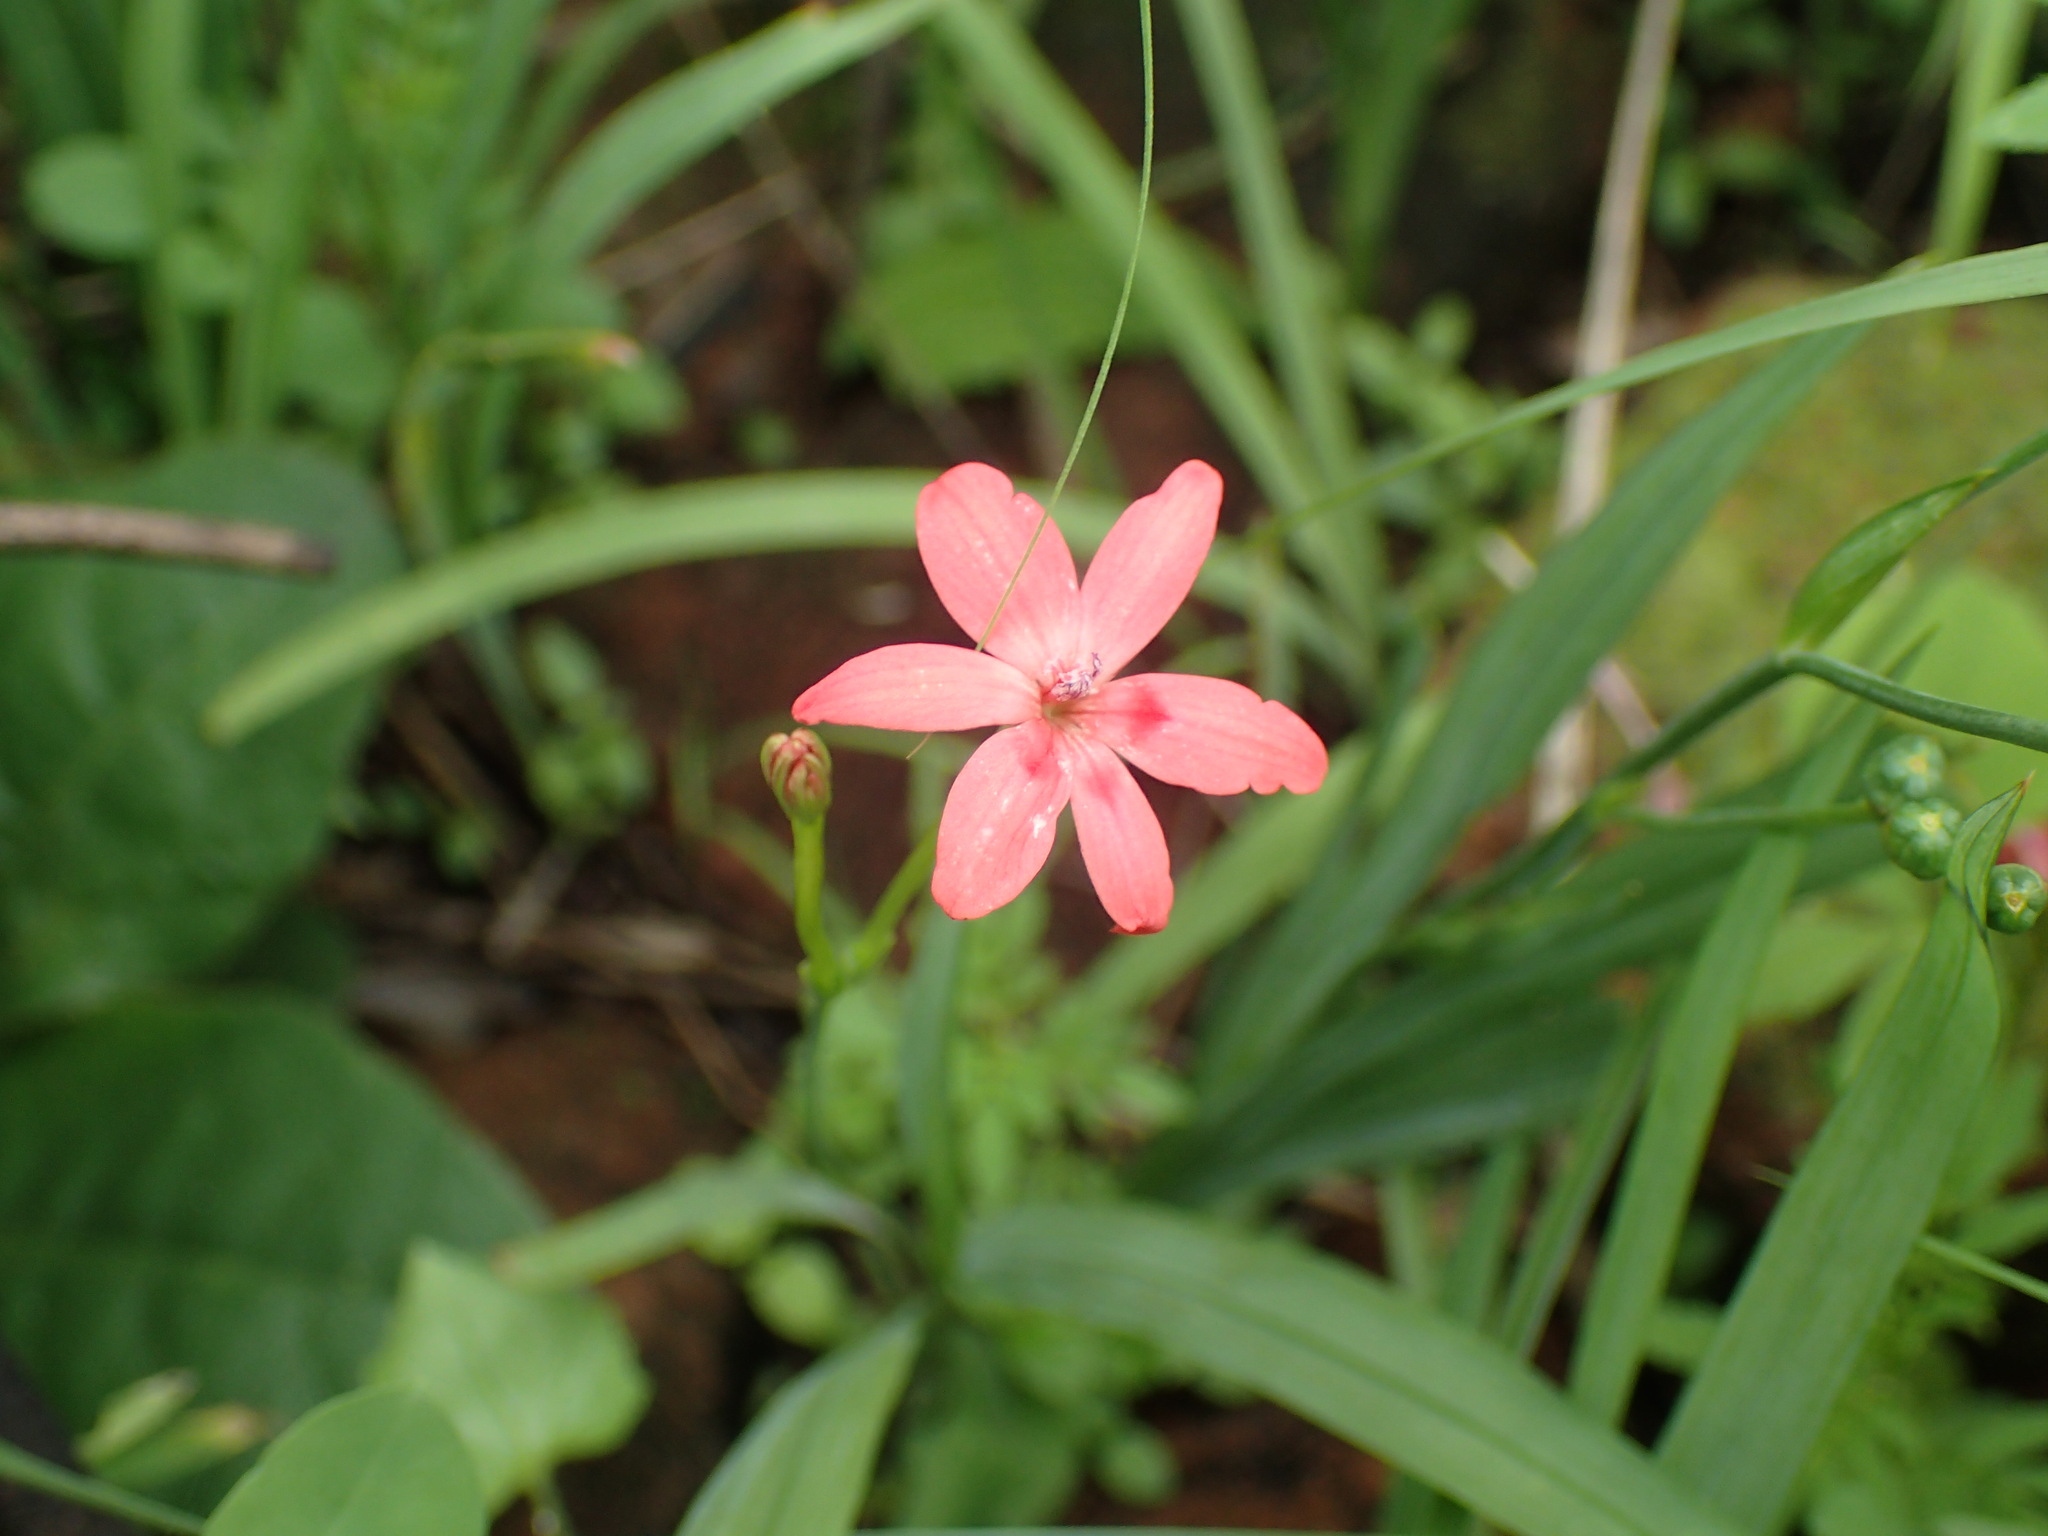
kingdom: Plantae
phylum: Tracheophyta
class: Liliopsida
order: Asparagales
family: Iridaceae
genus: Freesia
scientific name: Freesia laxa
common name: False freesia
